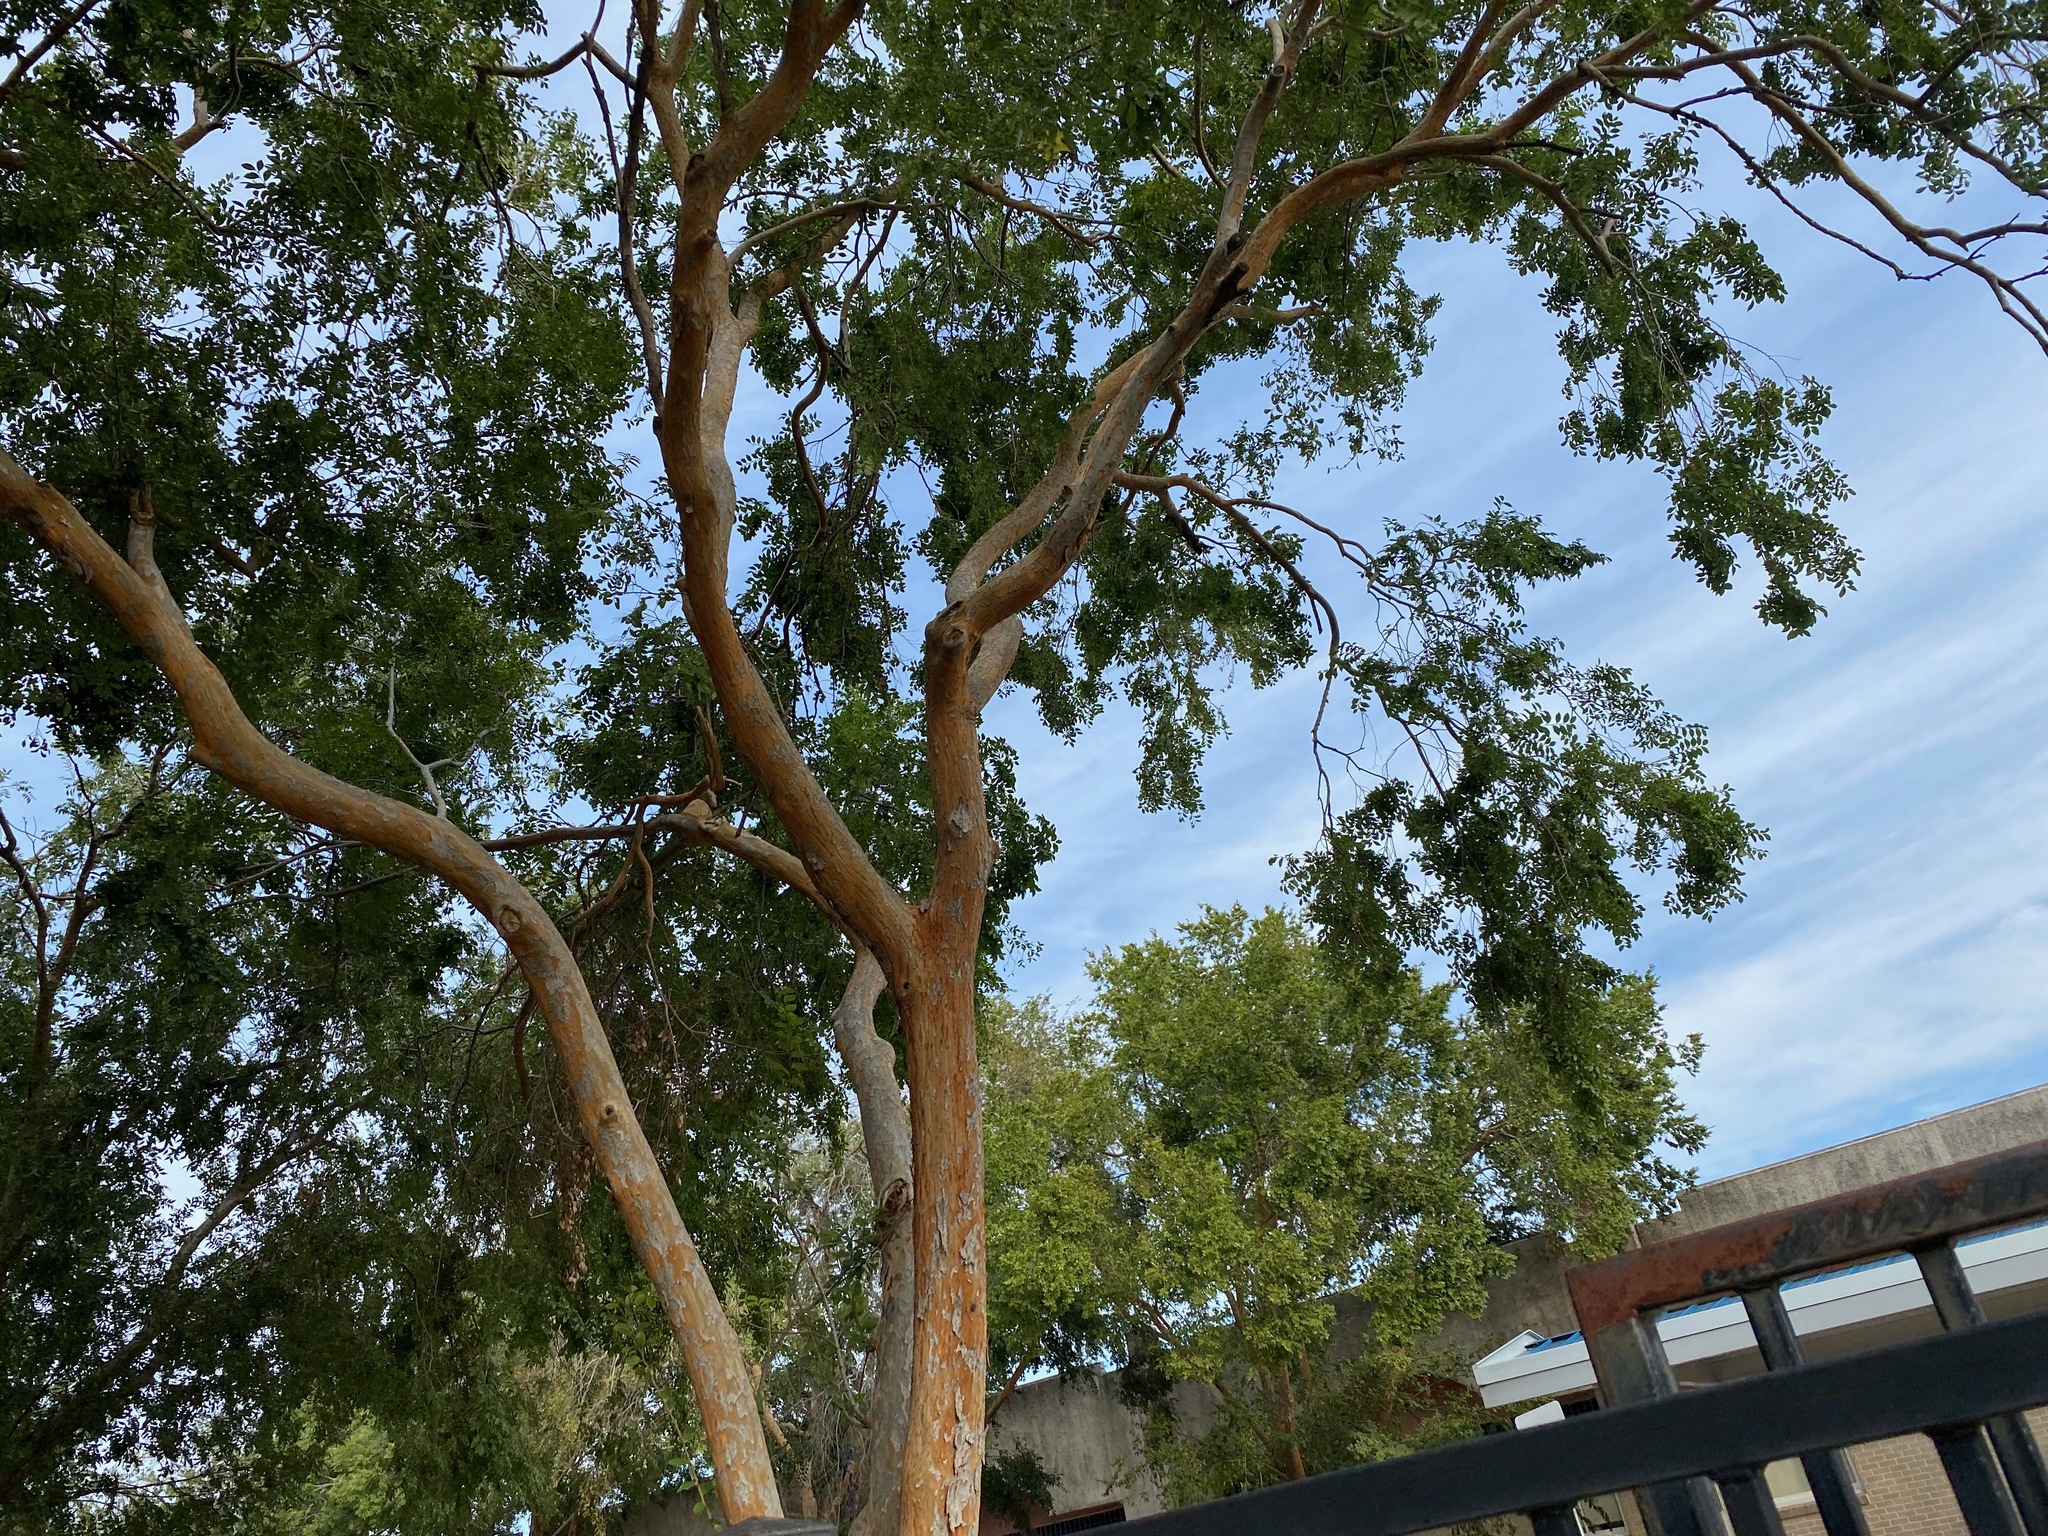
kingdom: Plantae
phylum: Tracheophyta
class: Magnoliopsida
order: Rosales
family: Ulmaceae
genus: Ulmus
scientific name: Ulmus parvifolia
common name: Chinese elm
